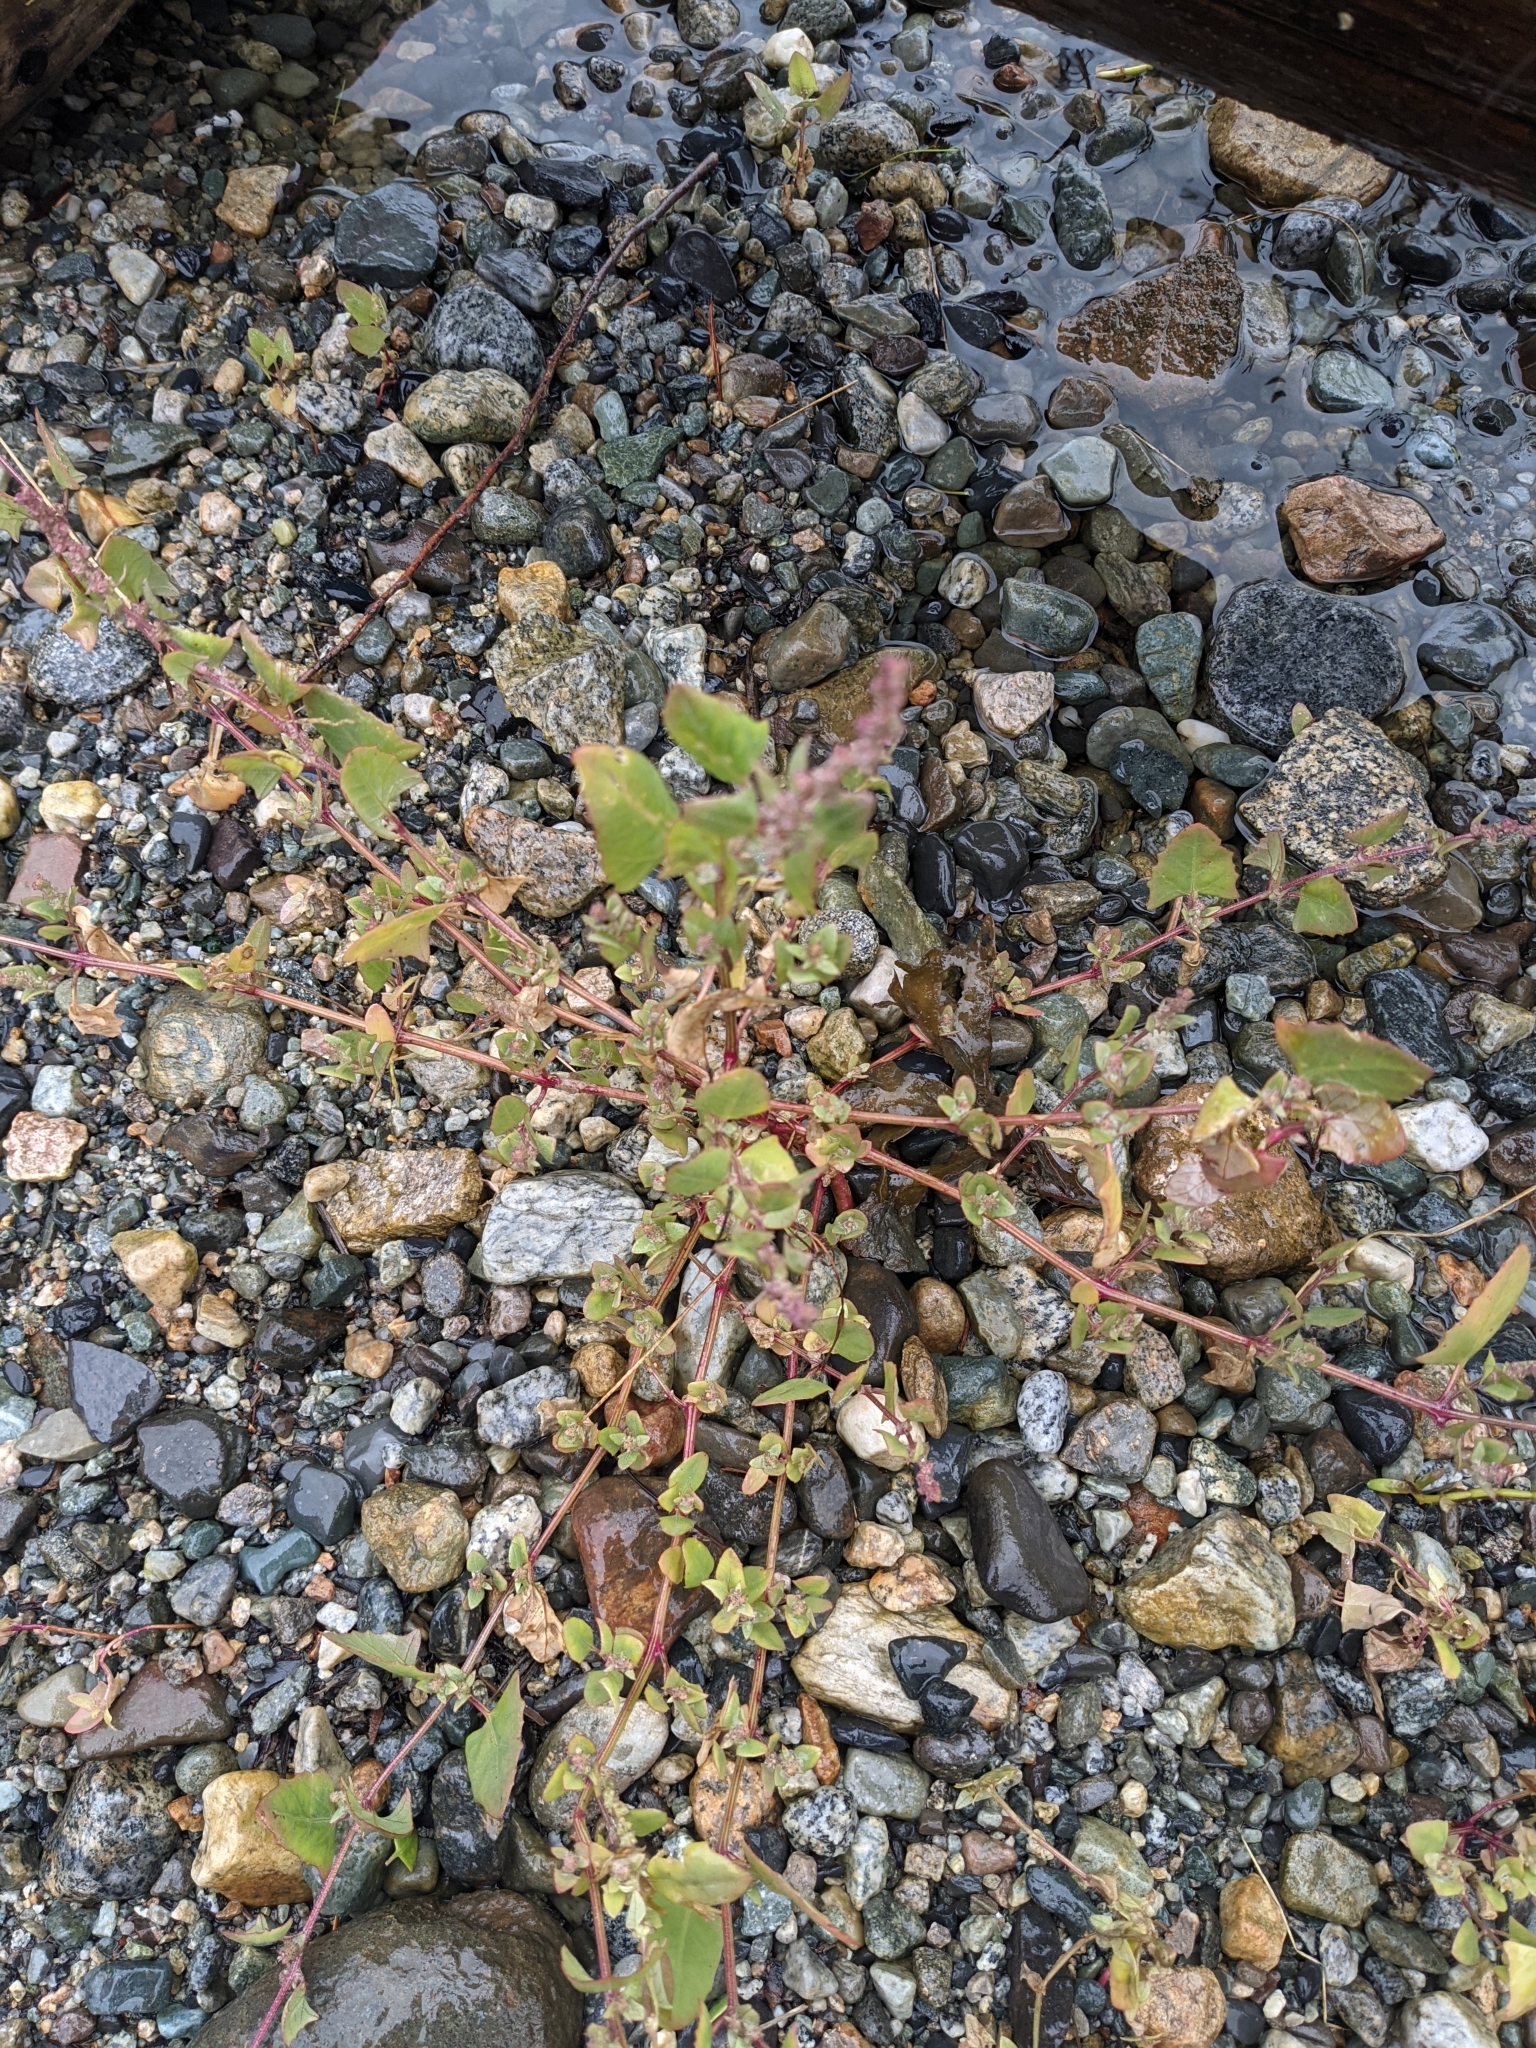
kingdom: Plantae
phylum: Tracheophyta
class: Magnoliopsida
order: Caryophyllales
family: Amaranthaceae
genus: Atriplex
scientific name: Atriplex prostrata
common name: Spear-leaved orache
